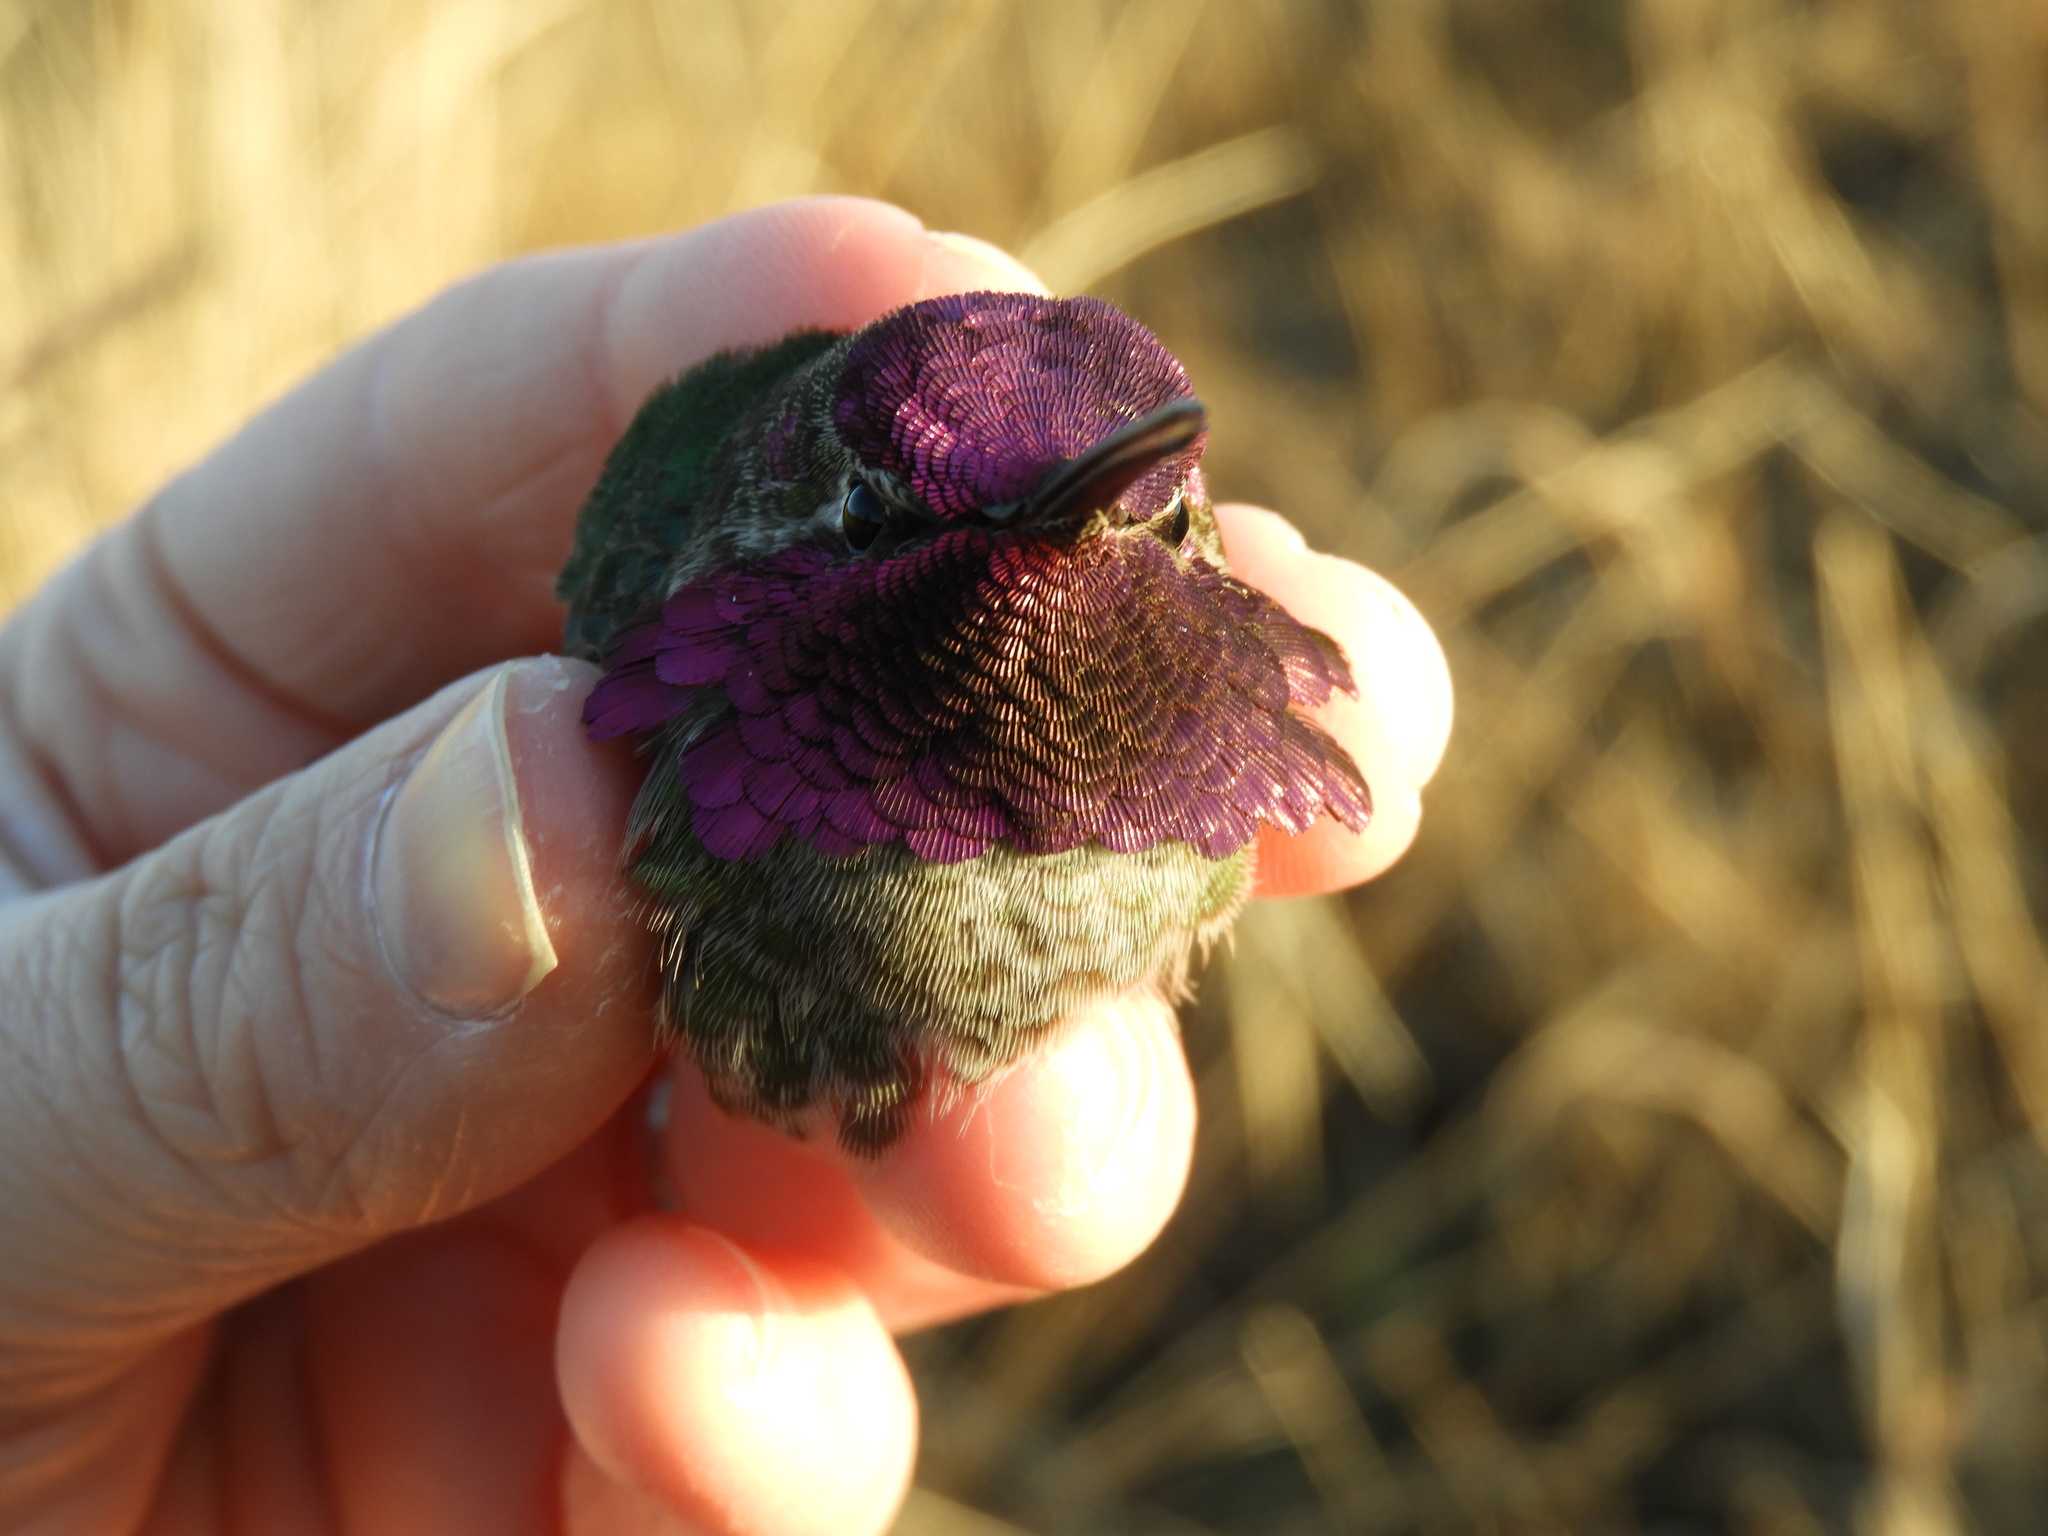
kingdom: Animalia
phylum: Chordata
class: Aves
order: Apodiformes
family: Trochilidae
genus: Calypte
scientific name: Calypte anna
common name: Anna's hummingbird
